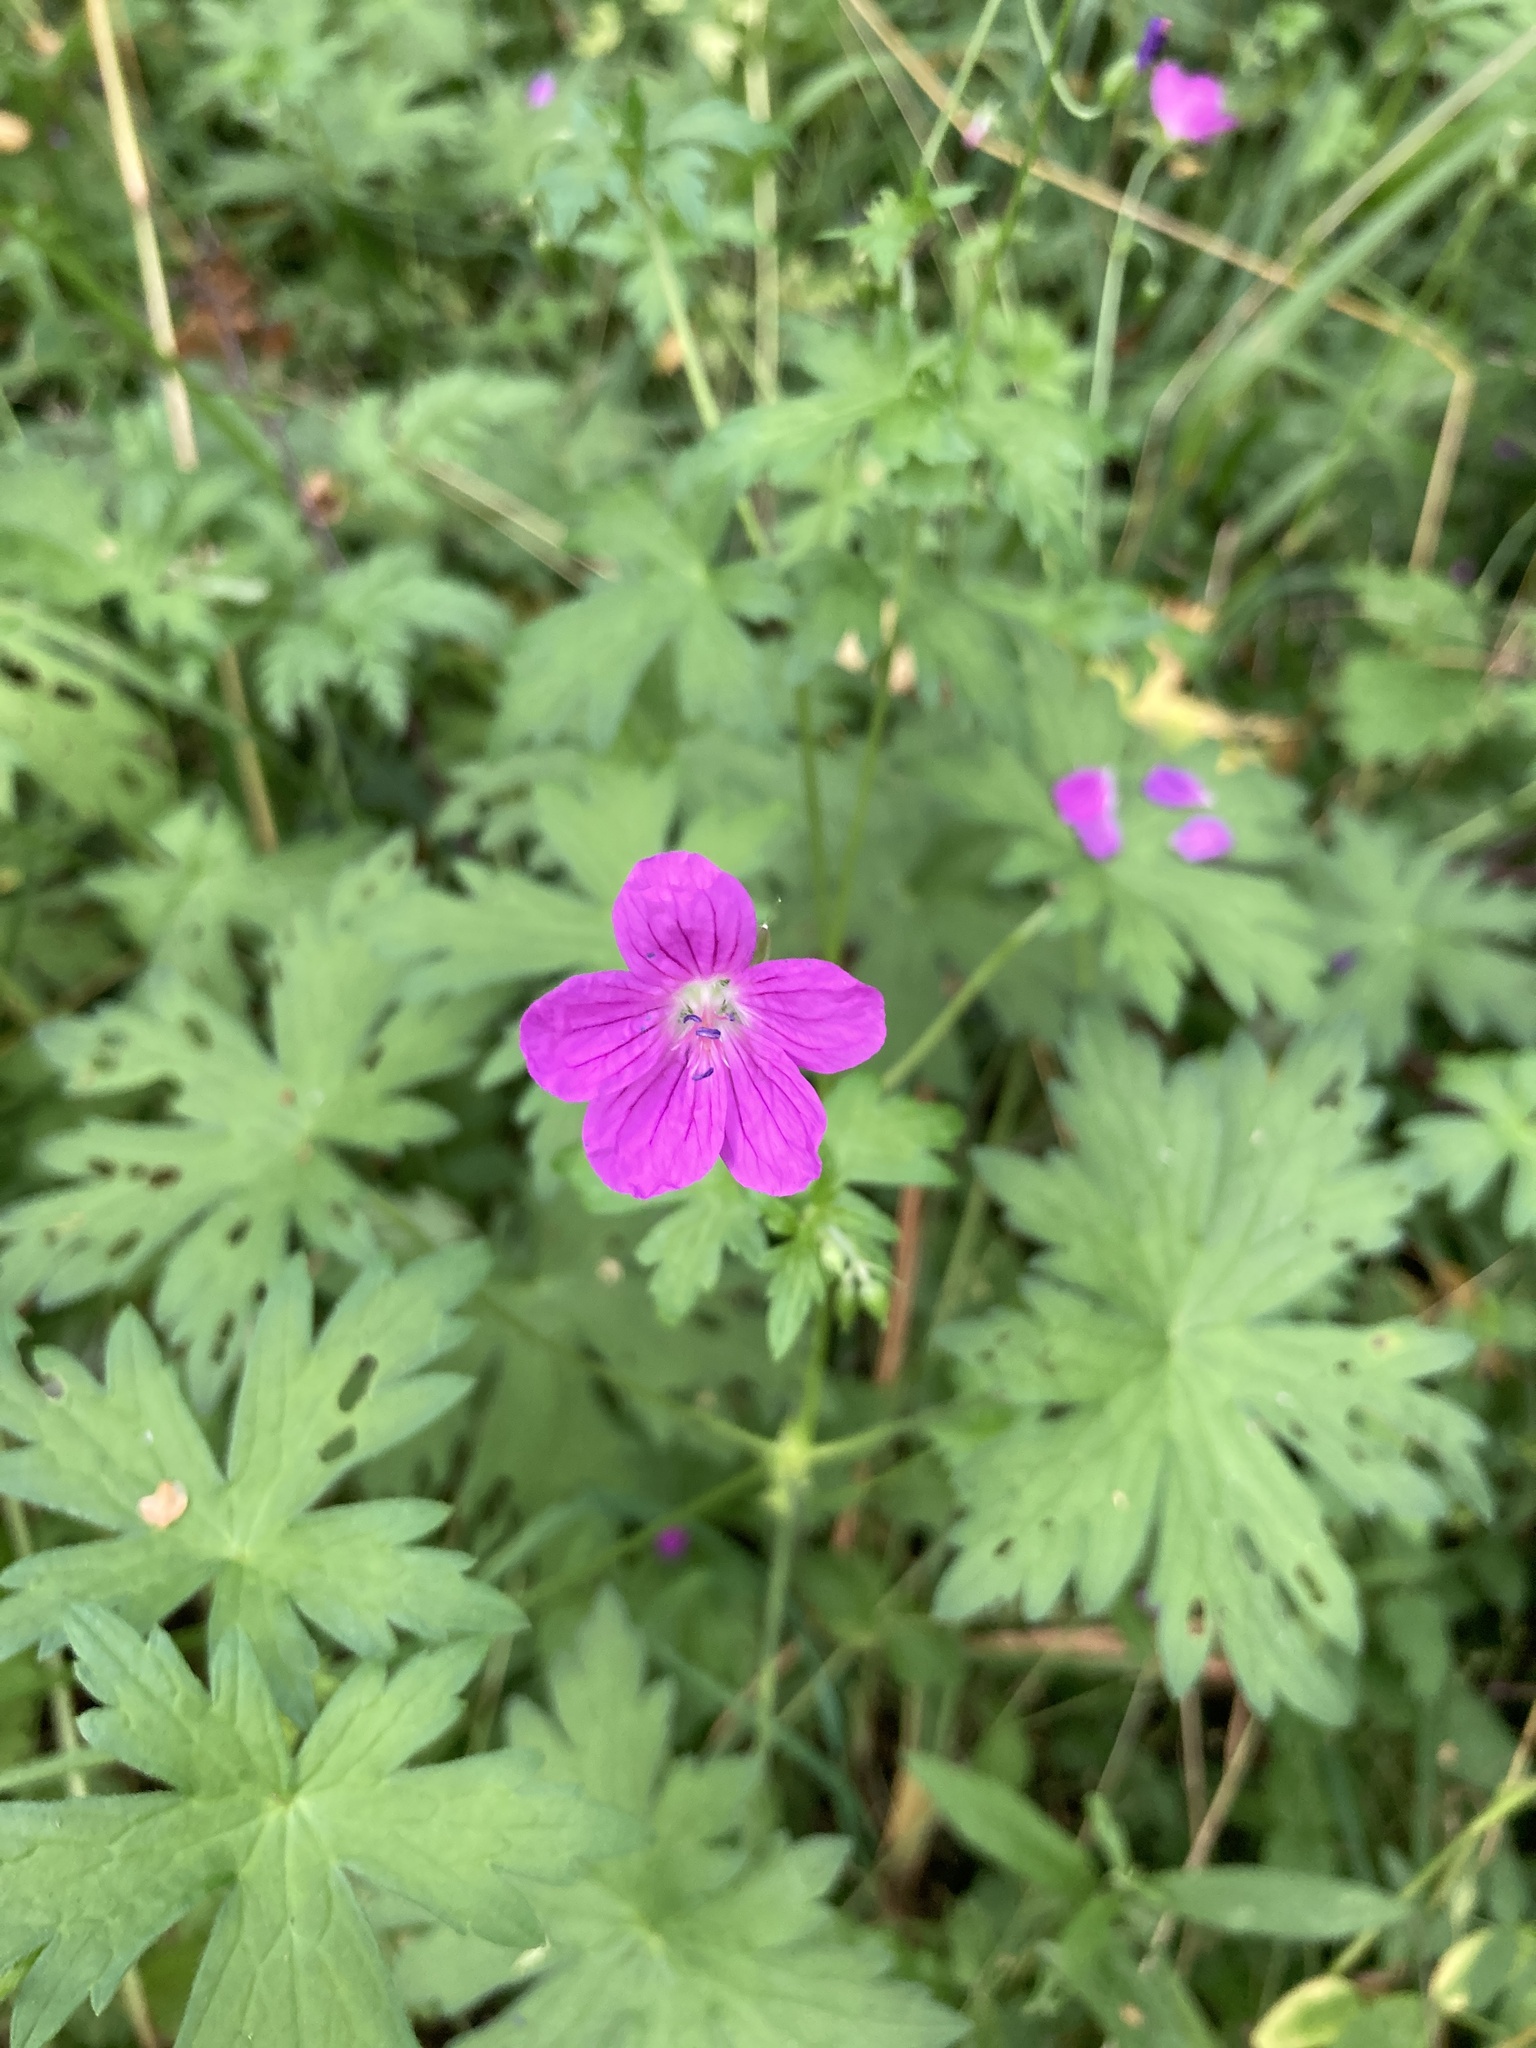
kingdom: Plantae
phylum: Tracheophyta
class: Magnoliopsida
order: Geraniales
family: Geraniaceae
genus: Geranium
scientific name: Geranium palustre
